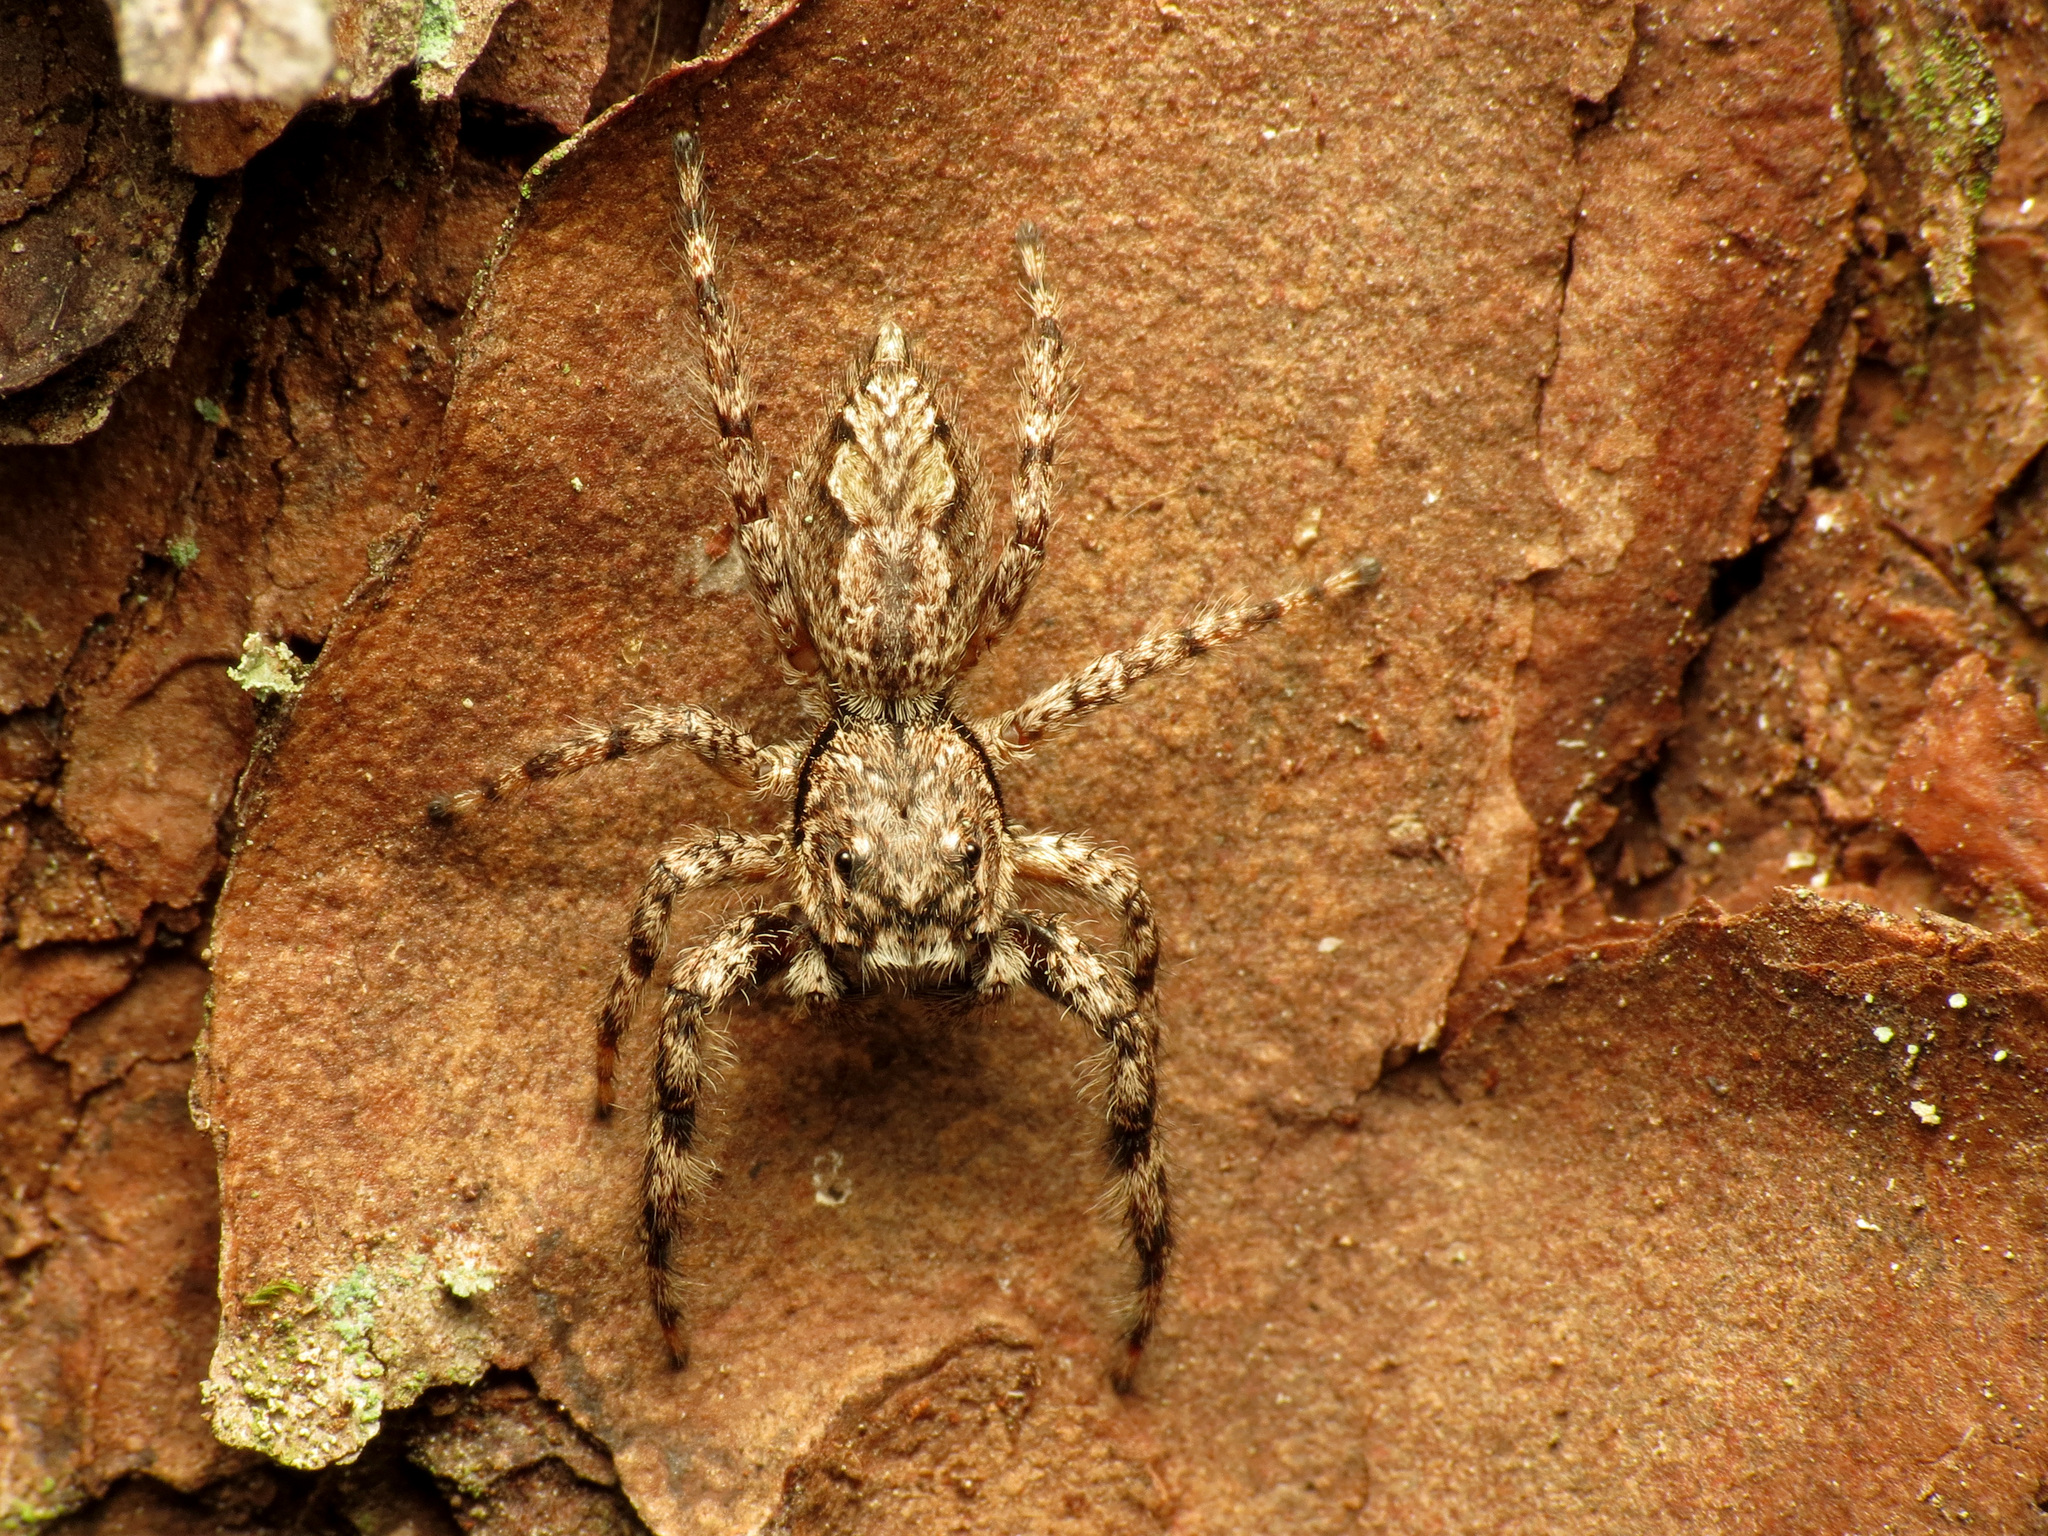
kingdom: Animalia
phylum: Arthropoda
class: Arachnida
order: Araneae
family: Salticidae
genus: Platycryptus
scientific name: Platycryptus undatus
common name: Tan jumping spider
